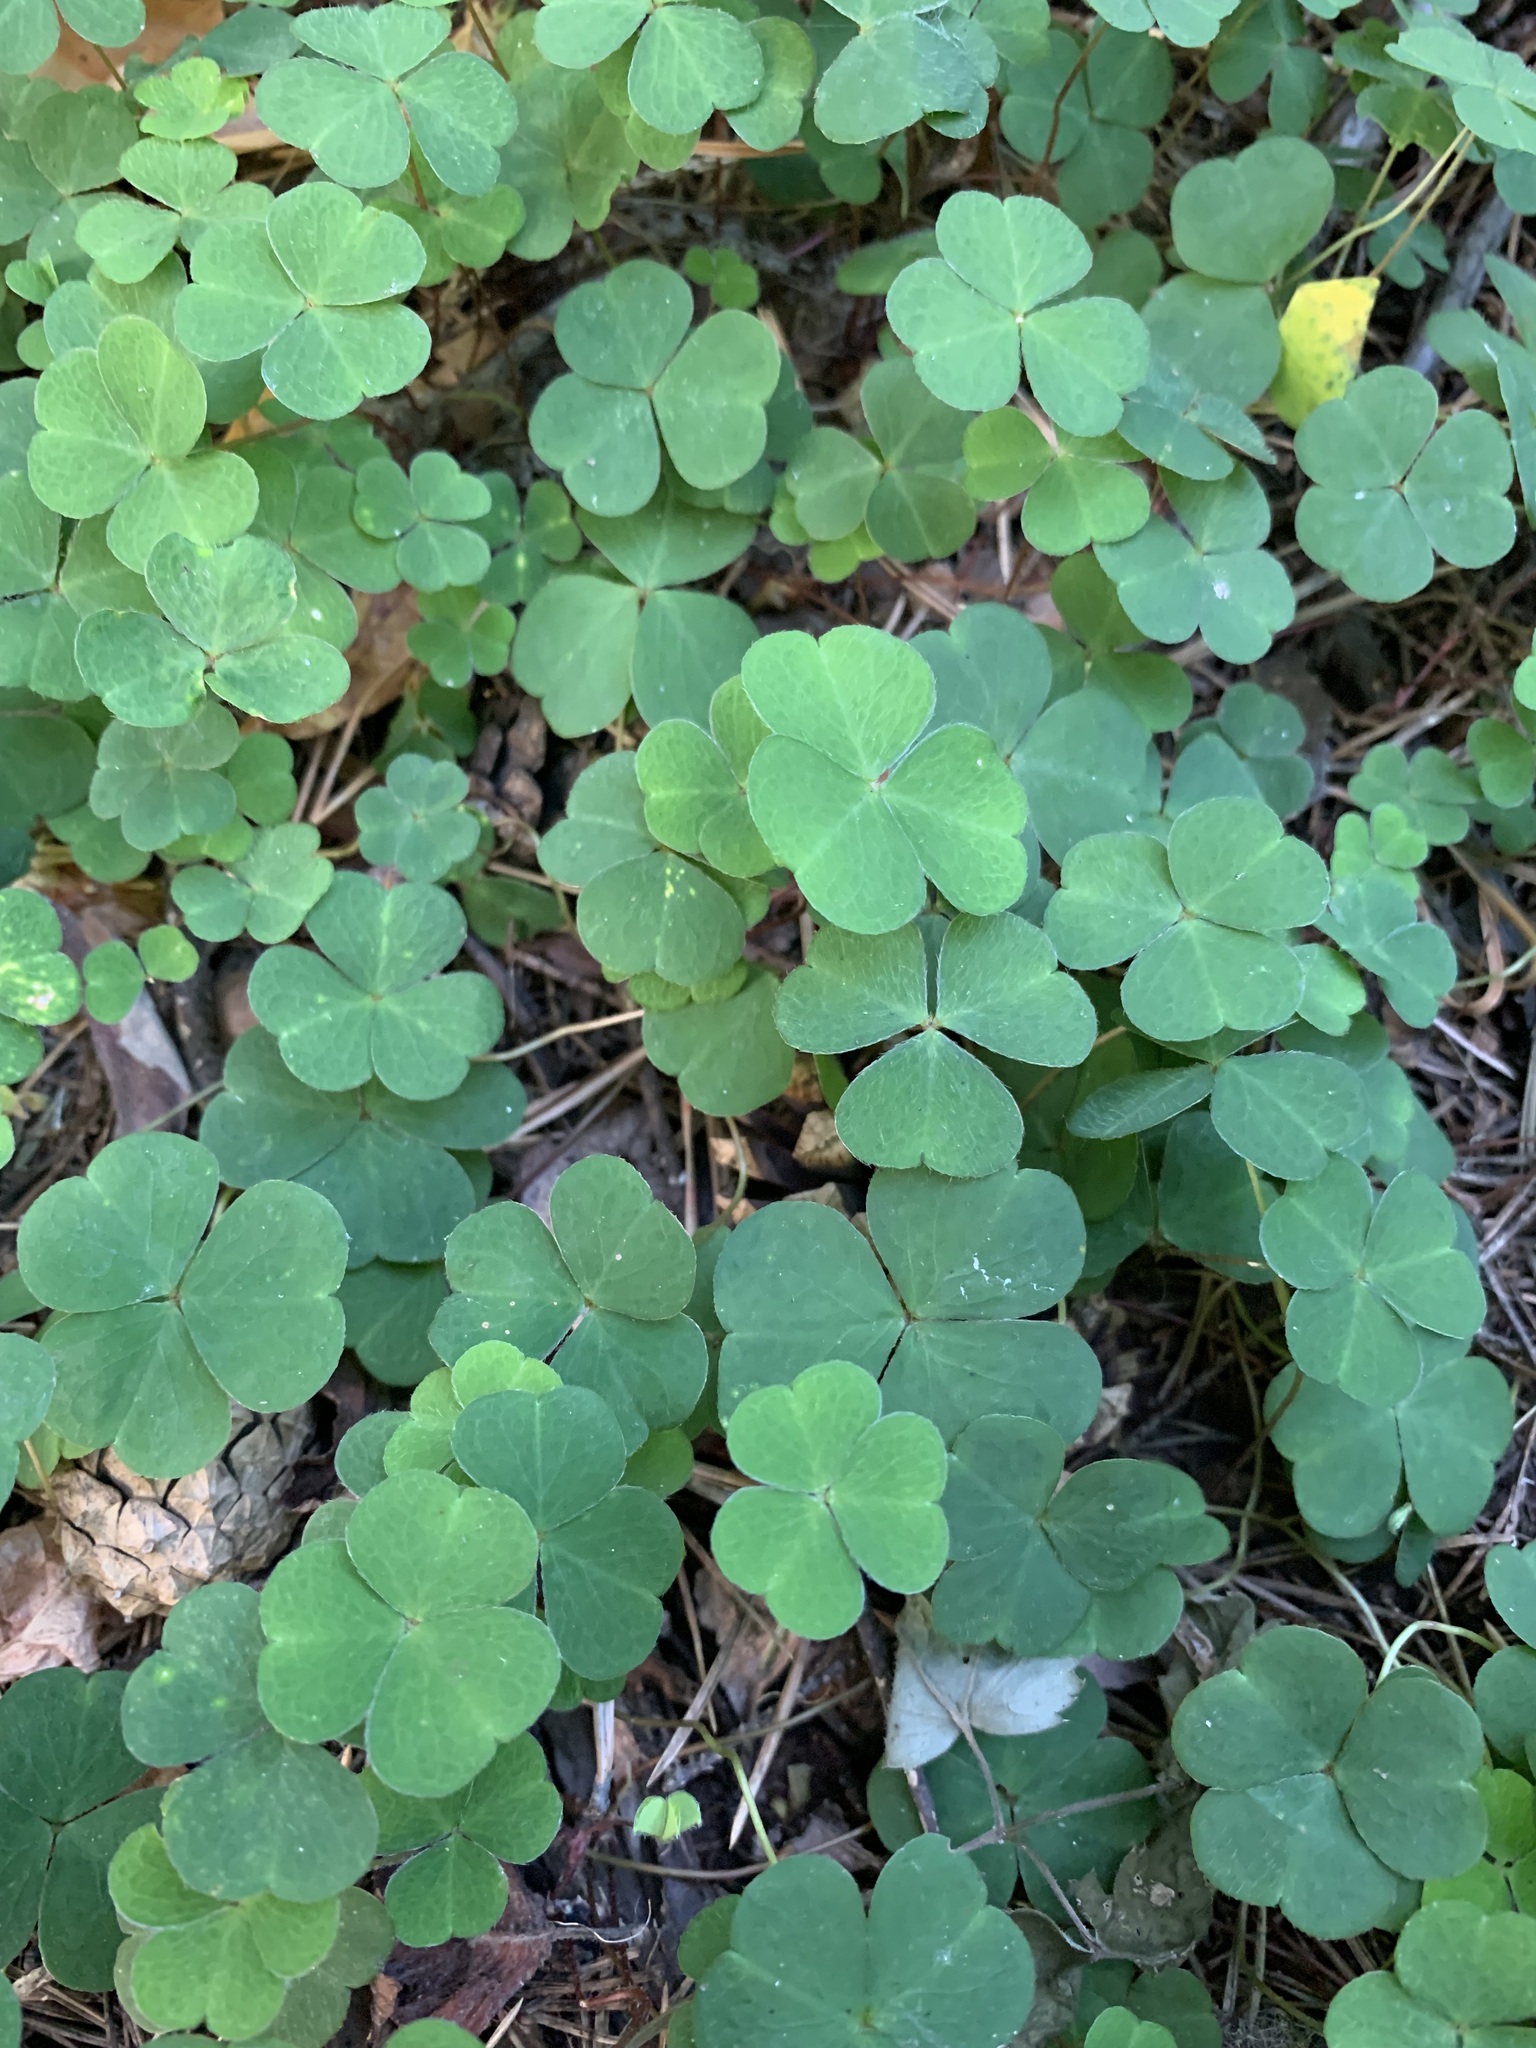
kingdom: Plantae
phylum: Tracheophyta
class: Magnoliopsida
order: Oxalidales
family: Oxalidaceae
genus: Oxalis
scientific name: Oxalis acetosella
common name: Wood-sorrel
